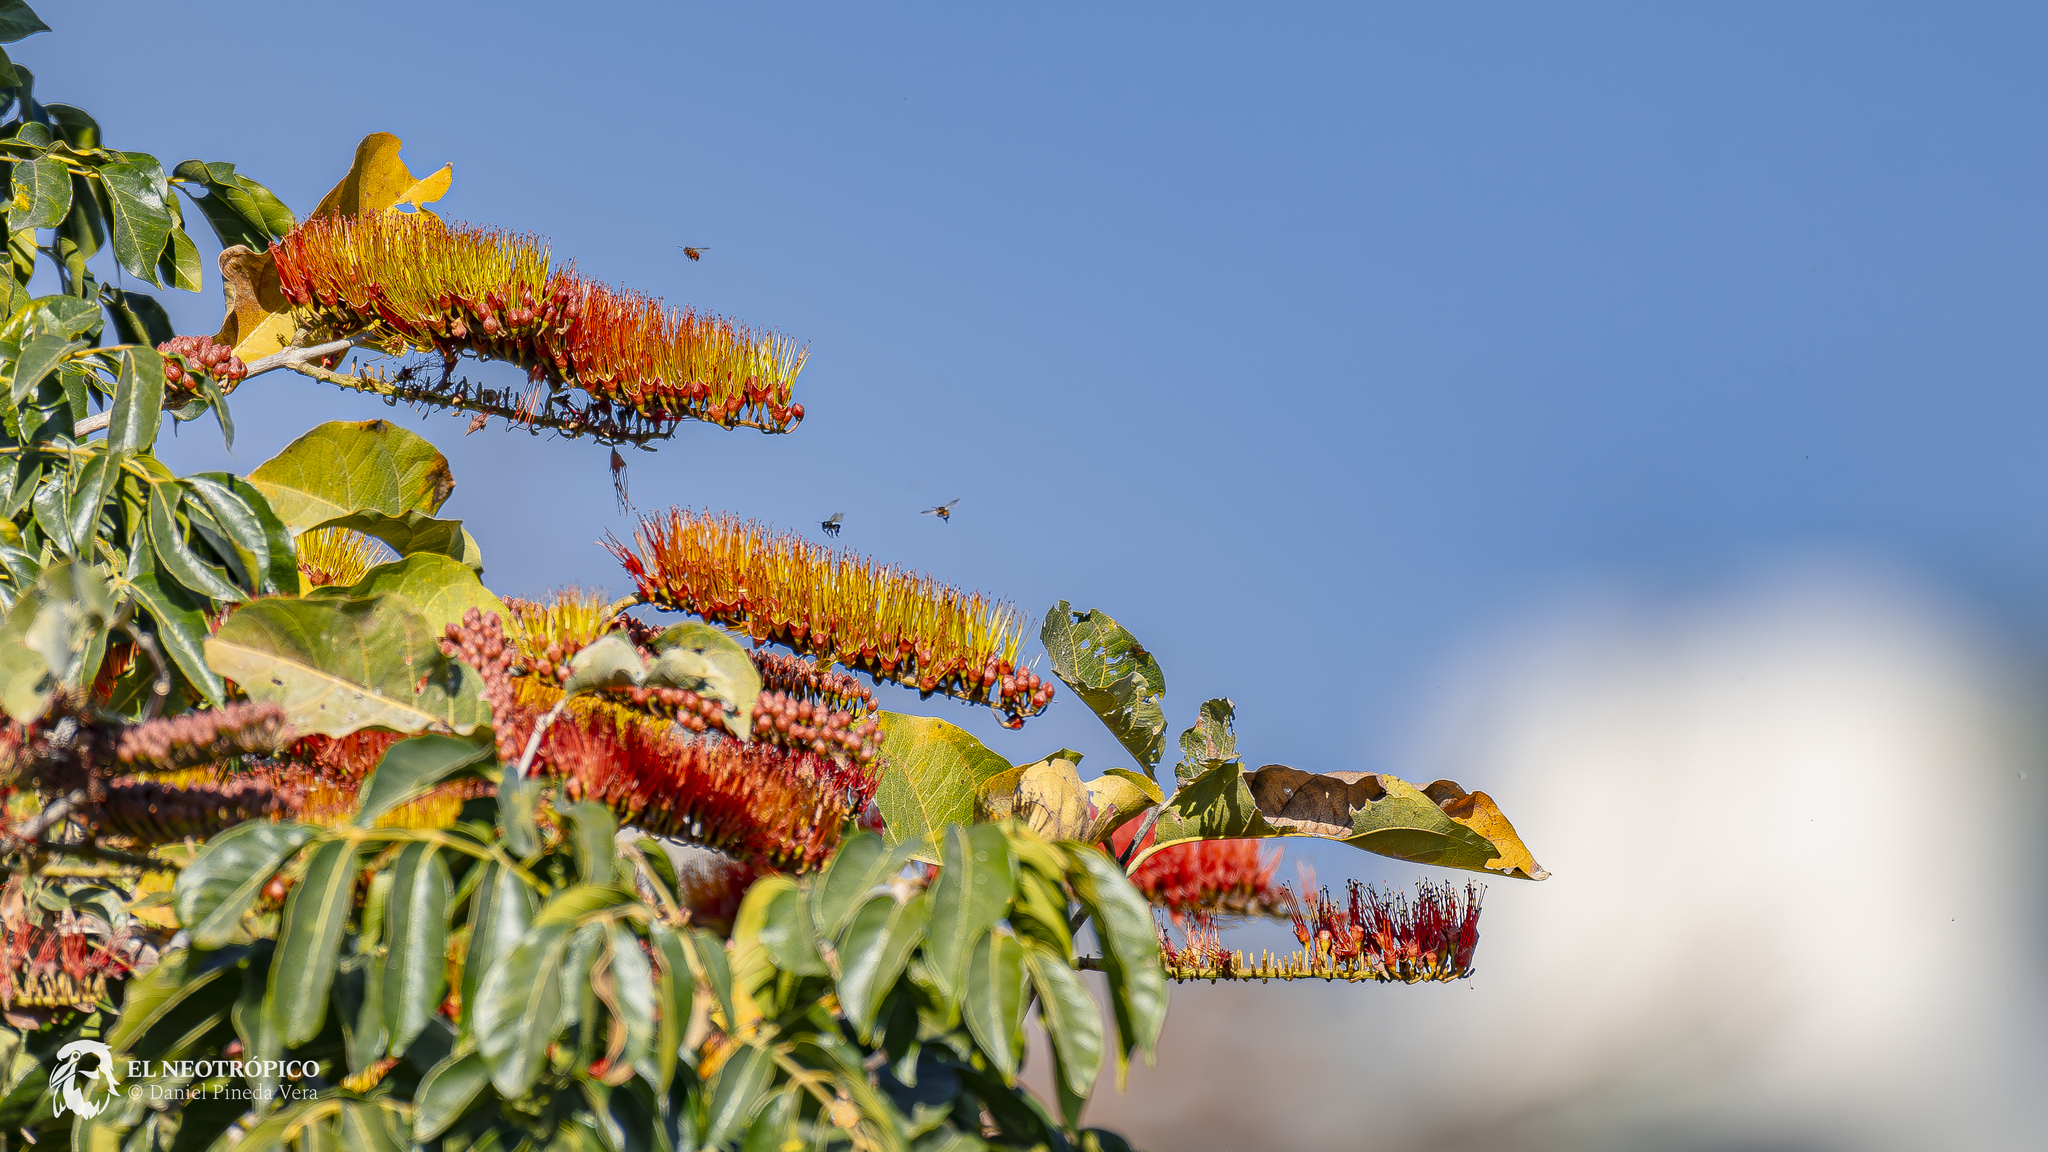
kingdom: Plantae
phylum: Tracheophyta
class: Magnoliopsida
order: Myrtales
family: Combretaceae
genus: Combretum
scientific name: Combretum farinosum
